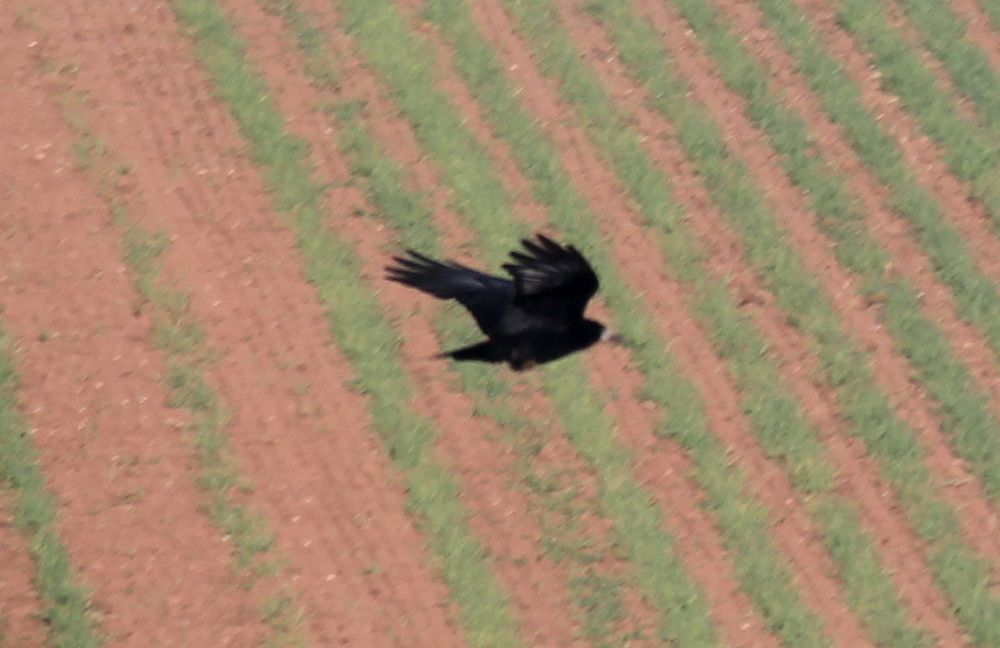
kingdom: Animalia
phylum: Chordata
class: Aves
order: Passeriformes
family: Corvidae
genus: Corvus
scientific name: Corvus frugilegus
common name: Rook
